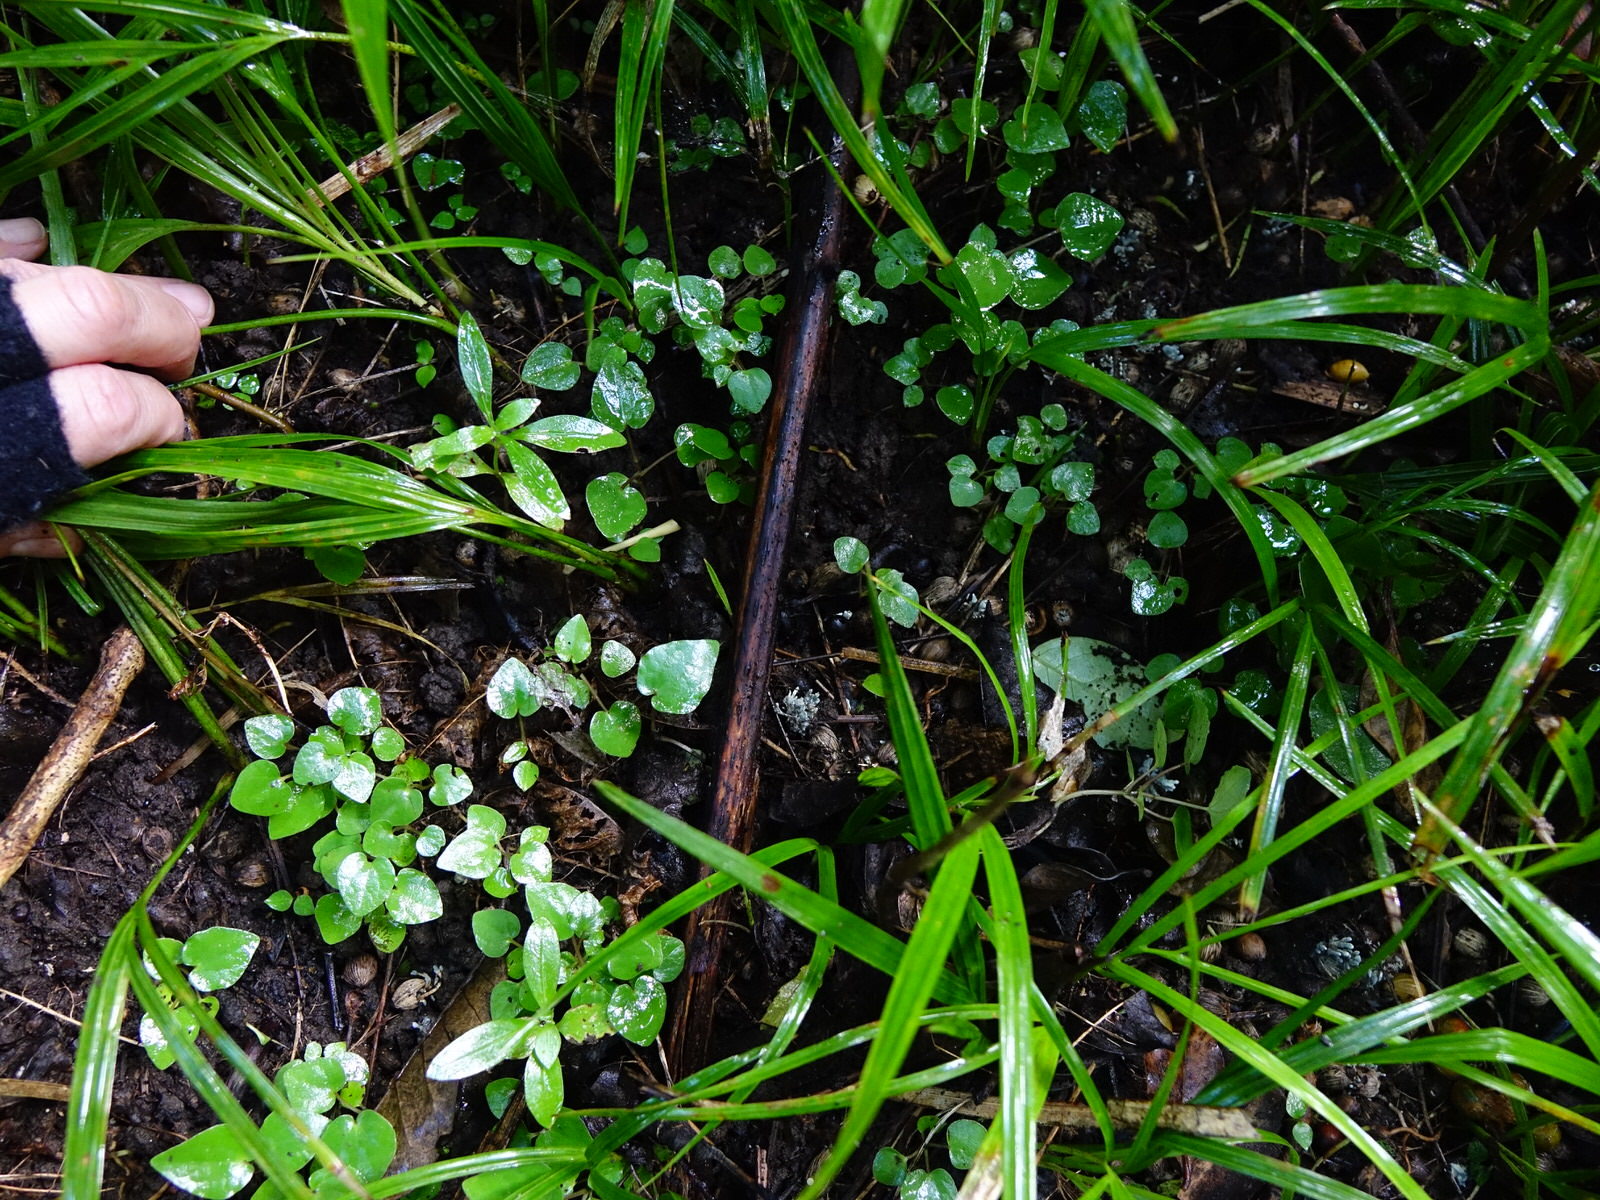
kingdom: Plantae
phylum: Tracheophyta
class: Magnoliopsida
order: Piperales
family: Piperaceae
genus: Macropiper
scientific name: Macropiper excelsum
